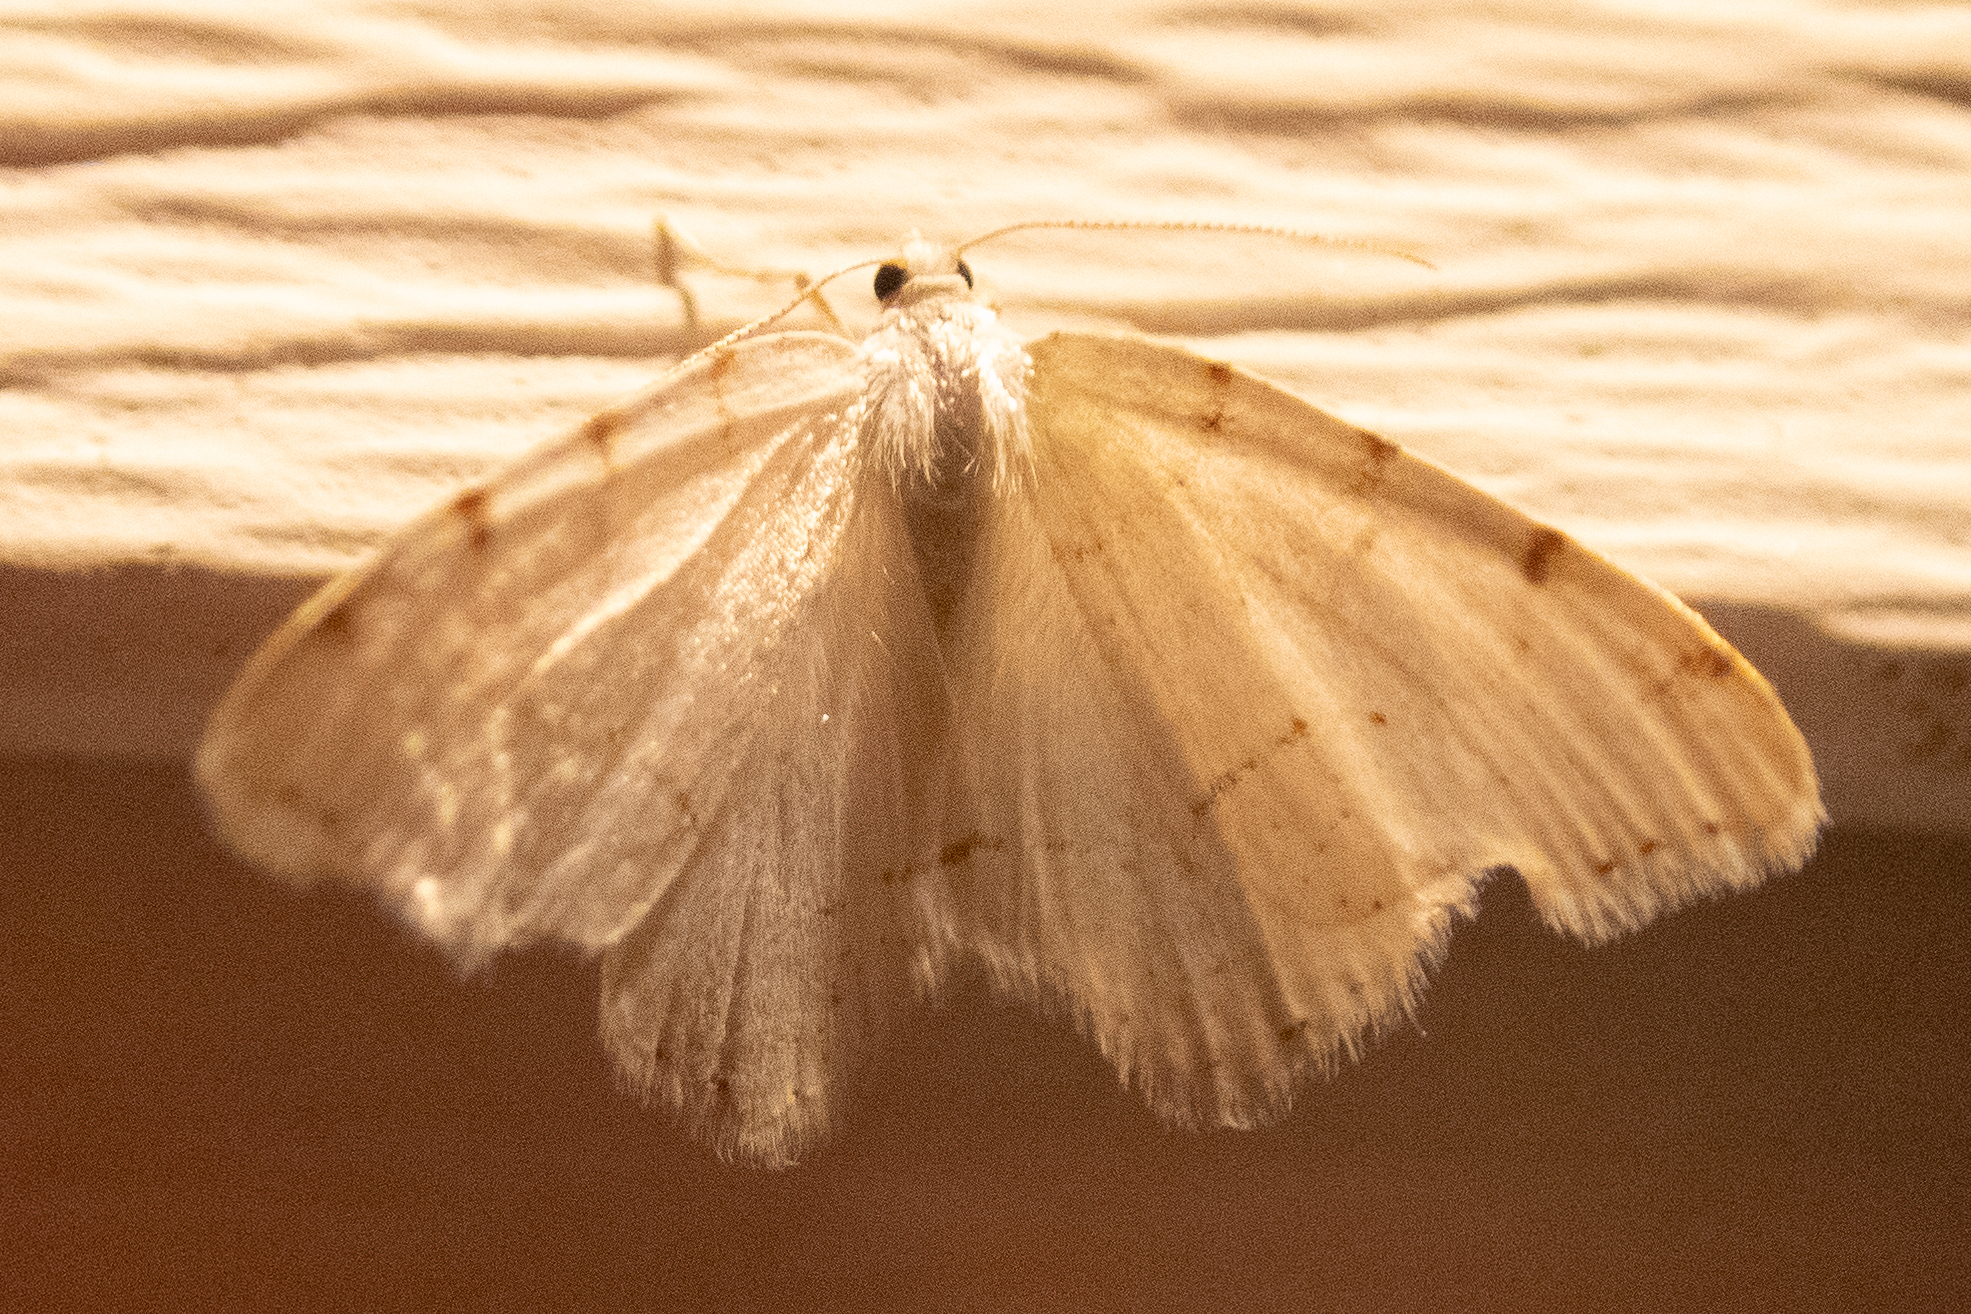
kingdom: Animalia
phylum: Arthropoda
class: Insecta
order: Lepidoptera
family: Geometridae
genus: Macaria
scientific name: Macaria pustularia
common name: Lesser maple spanworm moth
